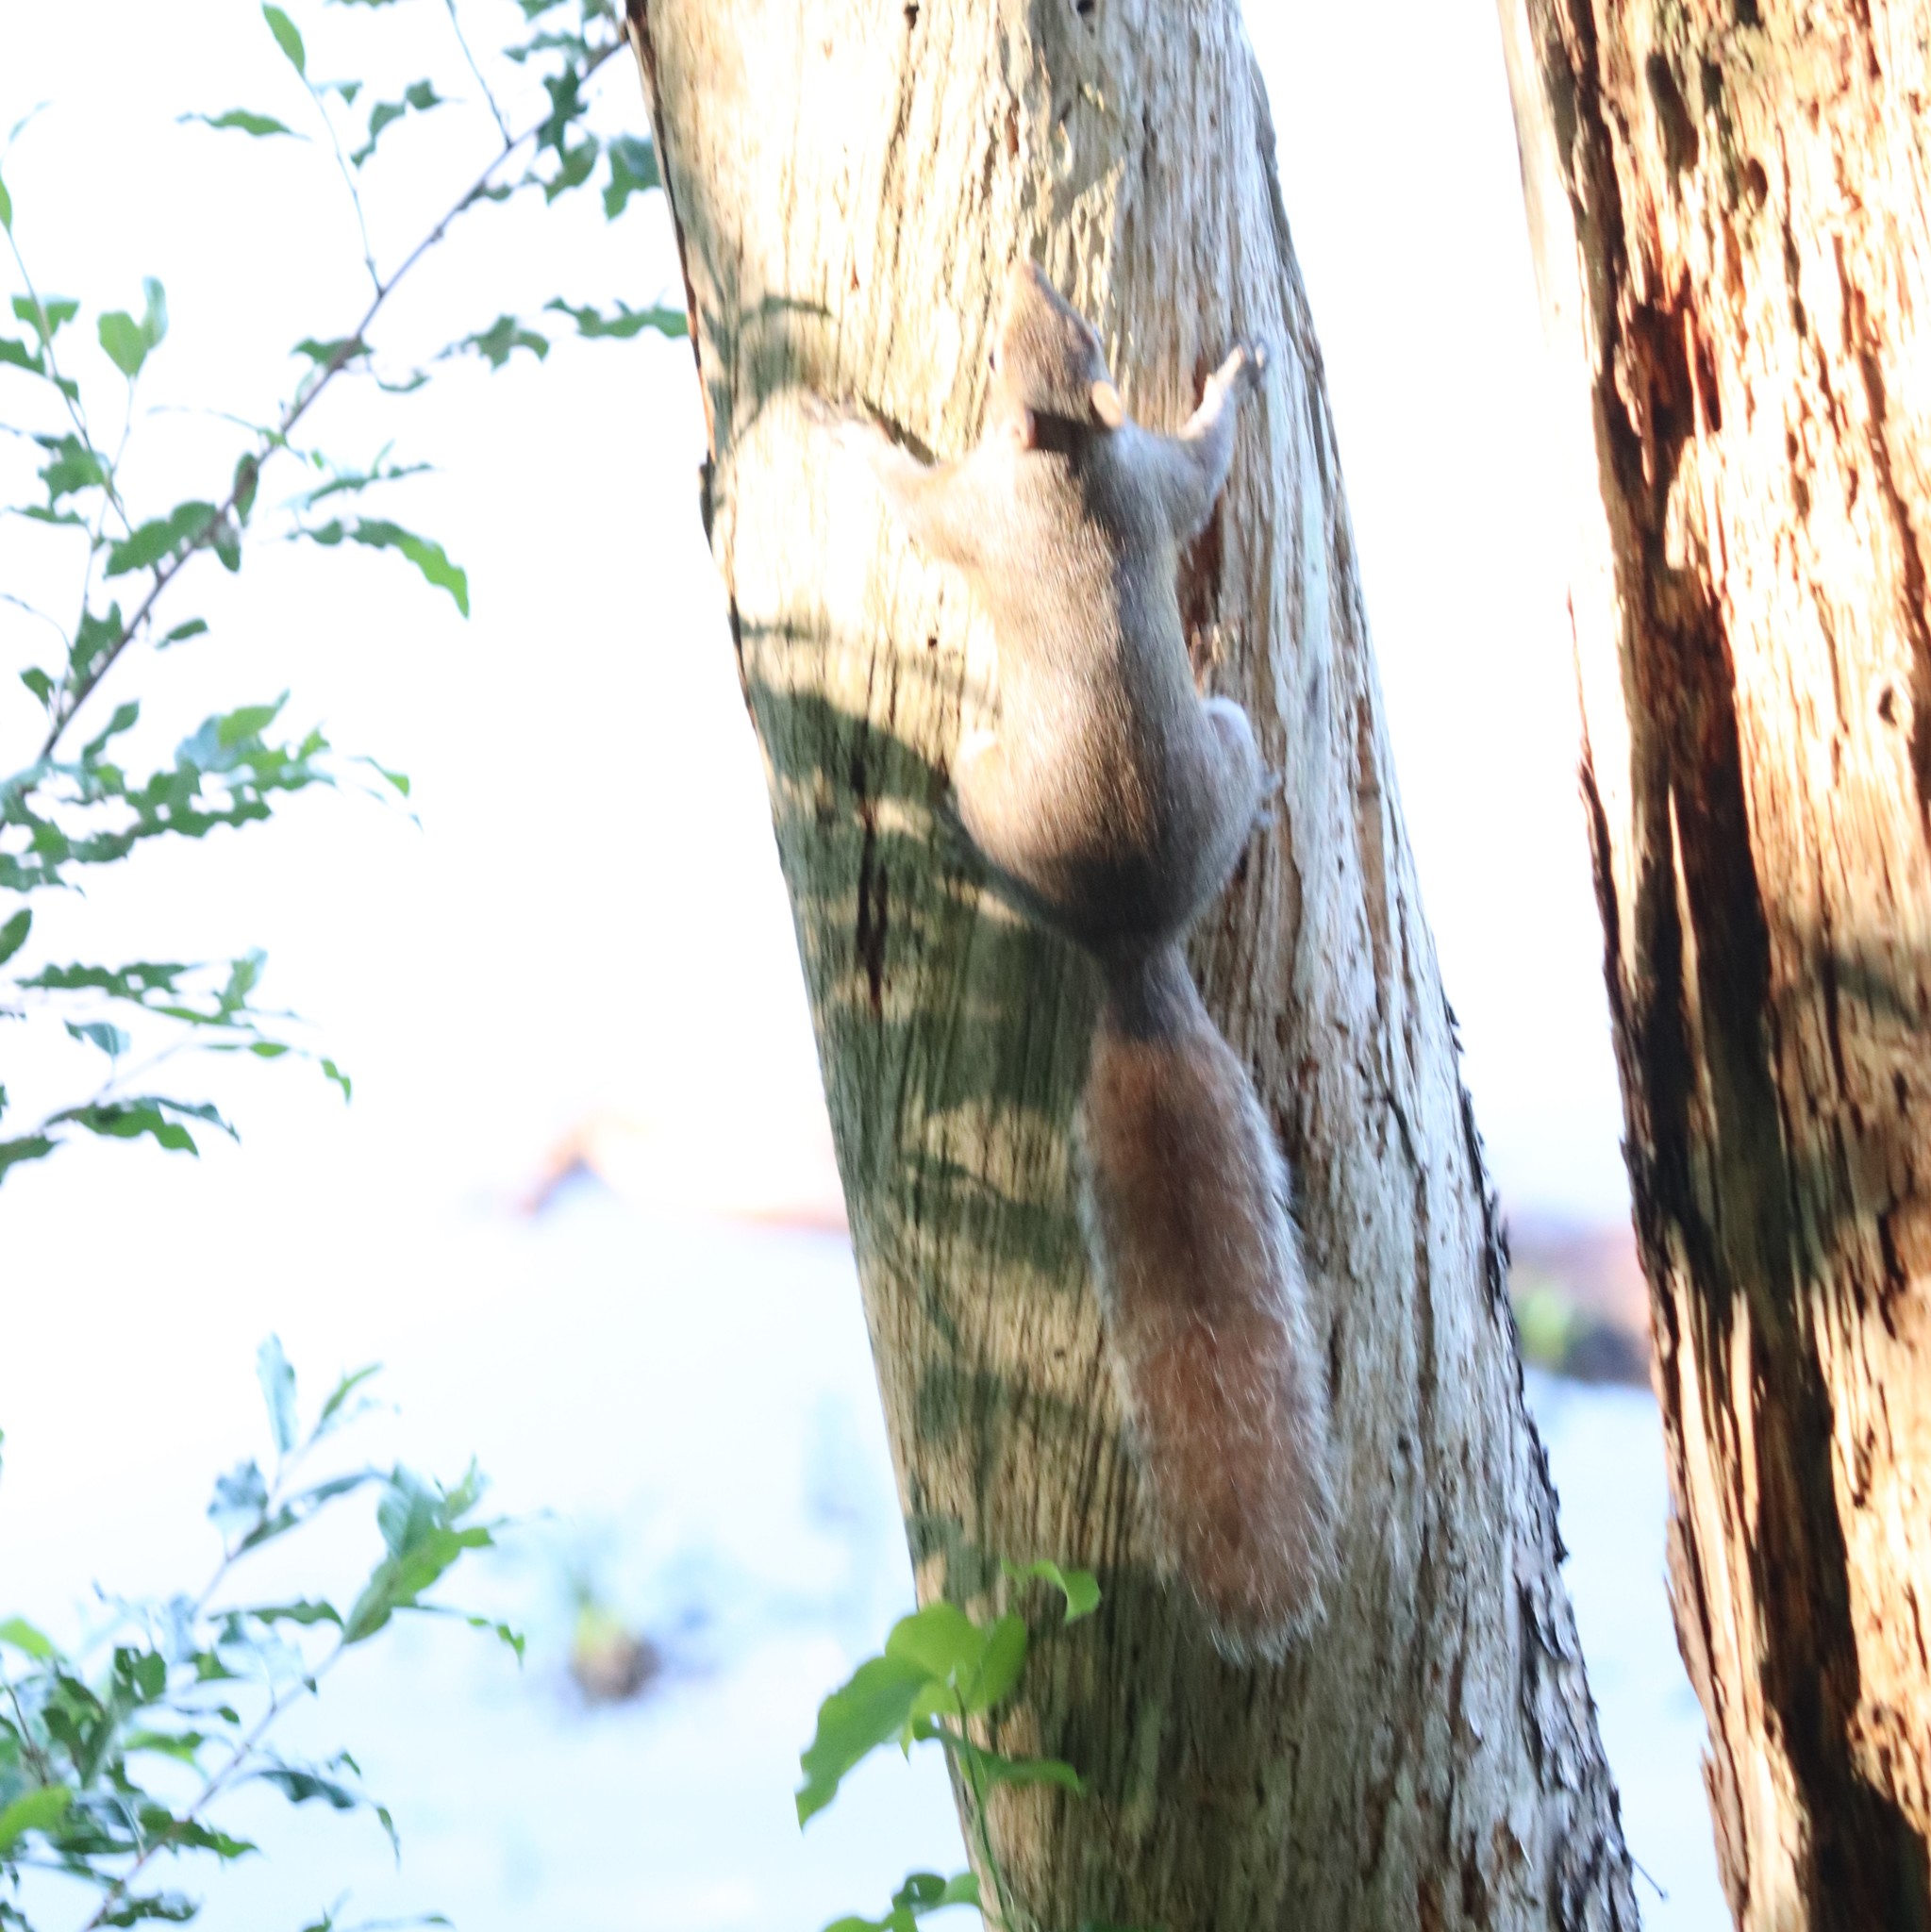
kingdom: Animalia
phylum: Chordata
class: Mammalia
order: Rodentia
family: Sciuridae
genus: Sciurus
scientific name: Sciurus carolinensis
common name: Eastern gray squirrel
